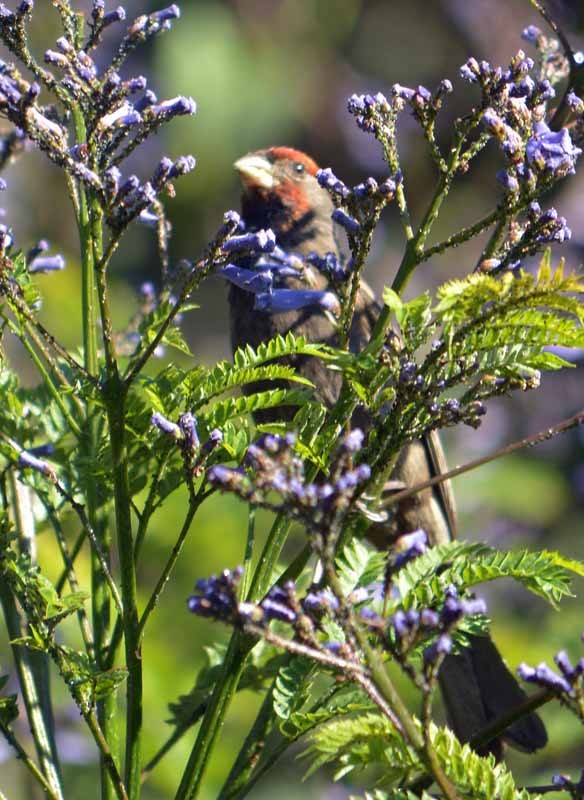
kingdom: Animalia
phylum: Chordata
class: Aves
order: Passeriformes
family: Fringillidae
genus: Haemorhous
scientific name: Haemorhous mexicanus
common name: House finch
